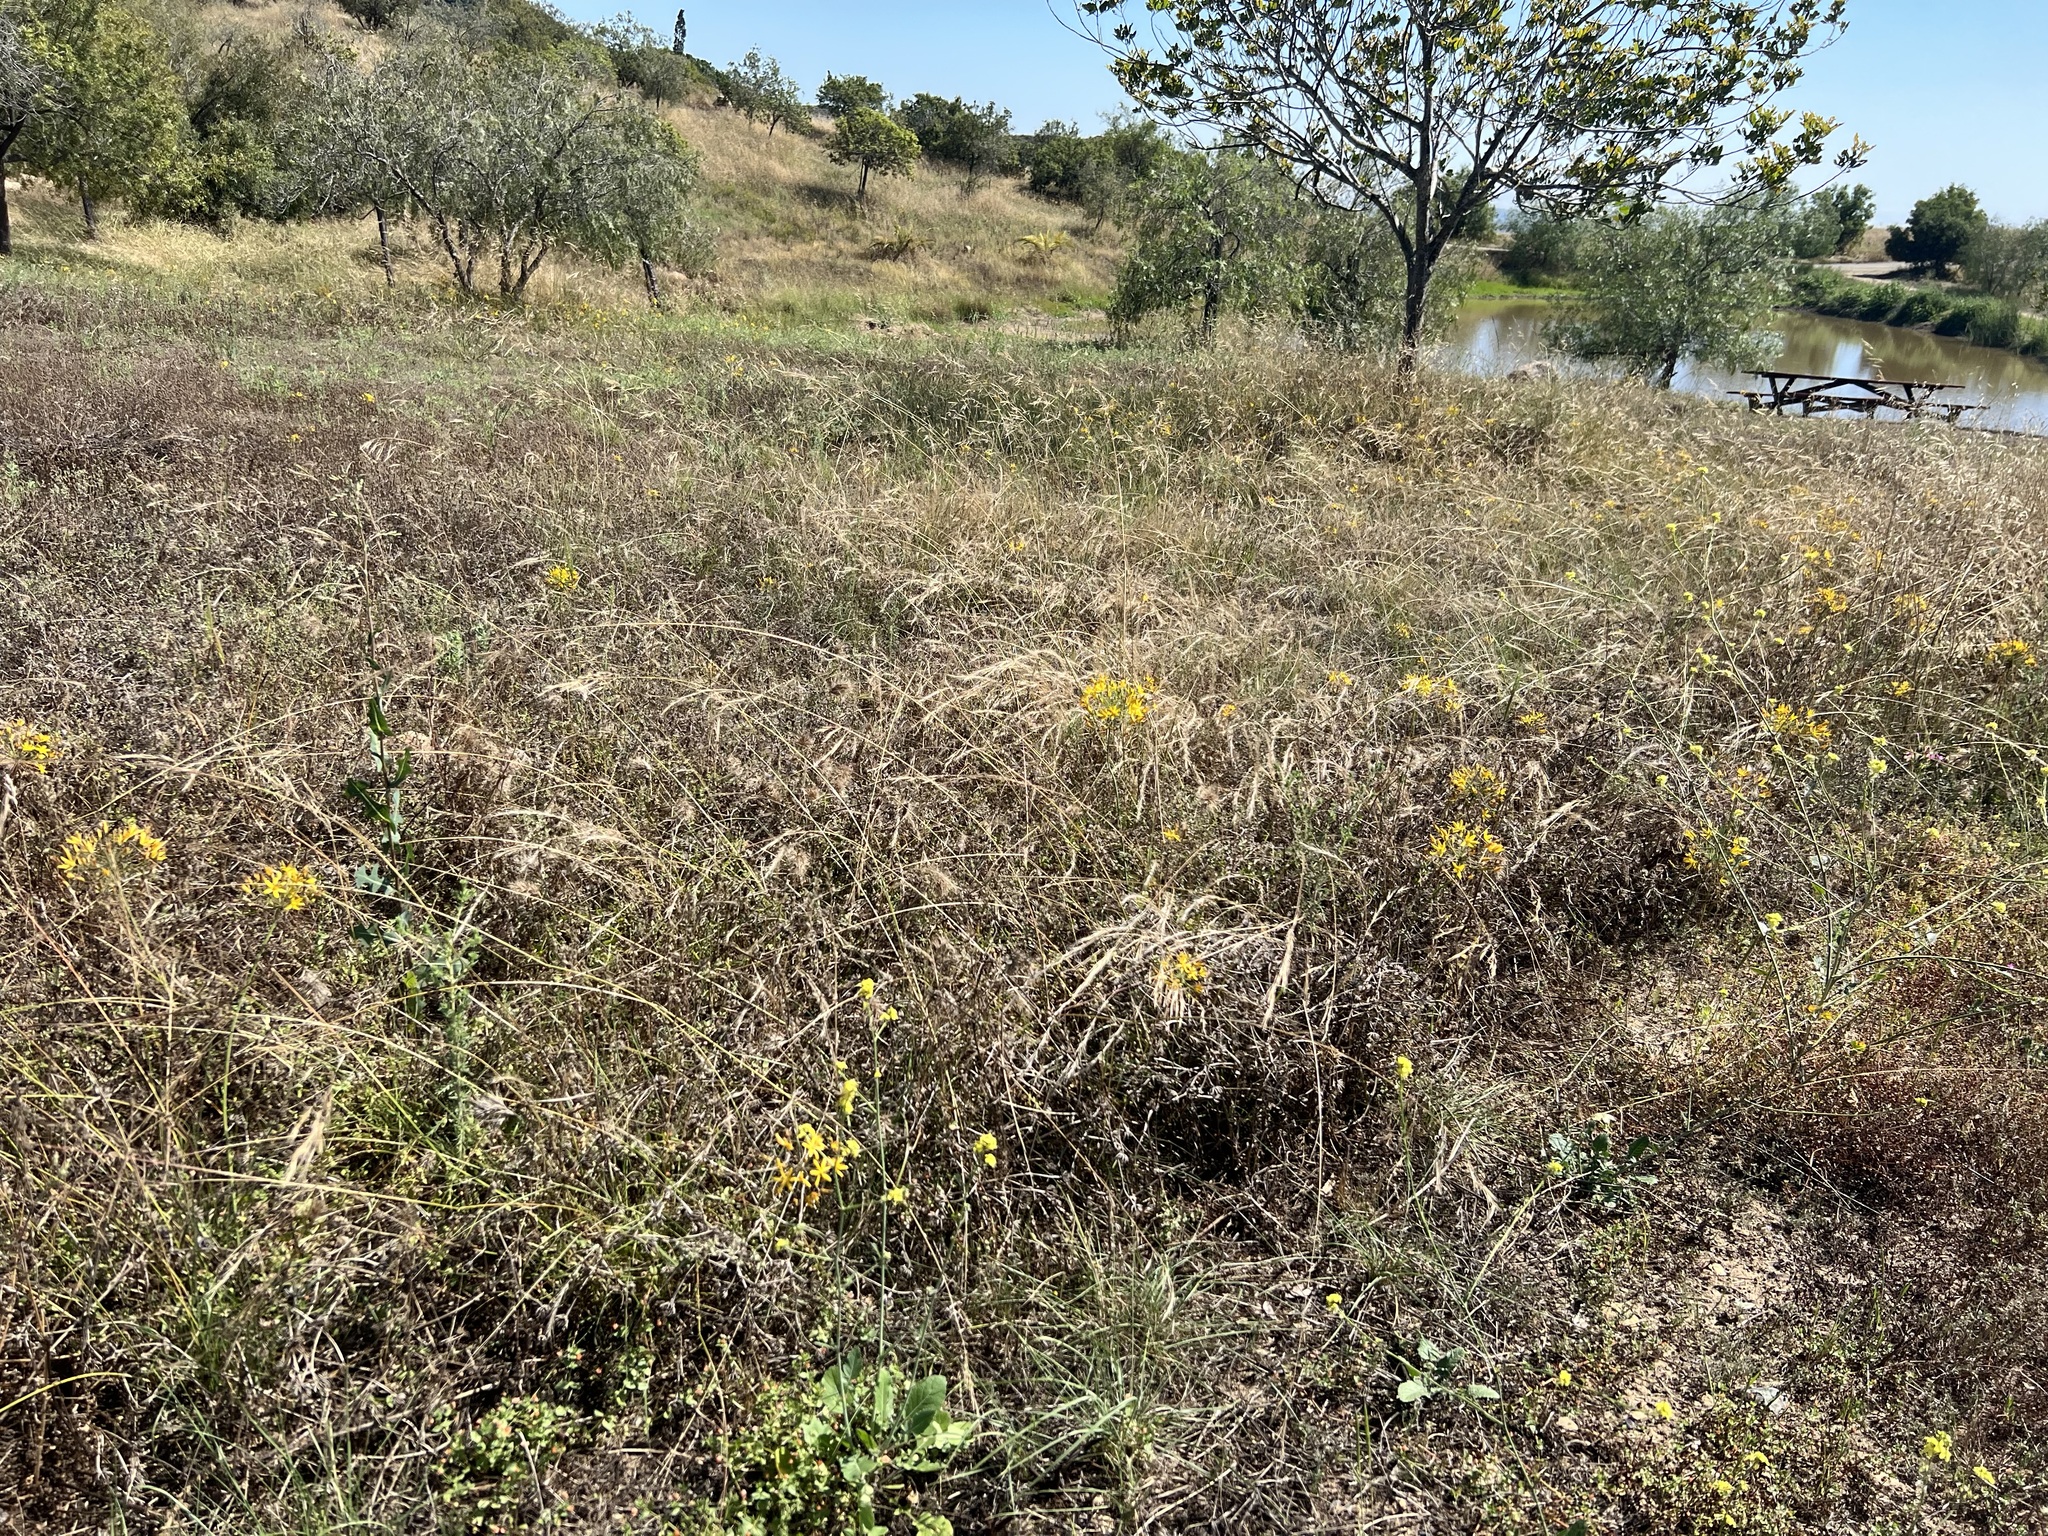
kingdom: Plantae
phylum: Tracheophyta
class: Magnoliopsida
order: Gentianales
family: Gentianaceae
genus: Zeltnera
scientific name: Zeltnera venusta
